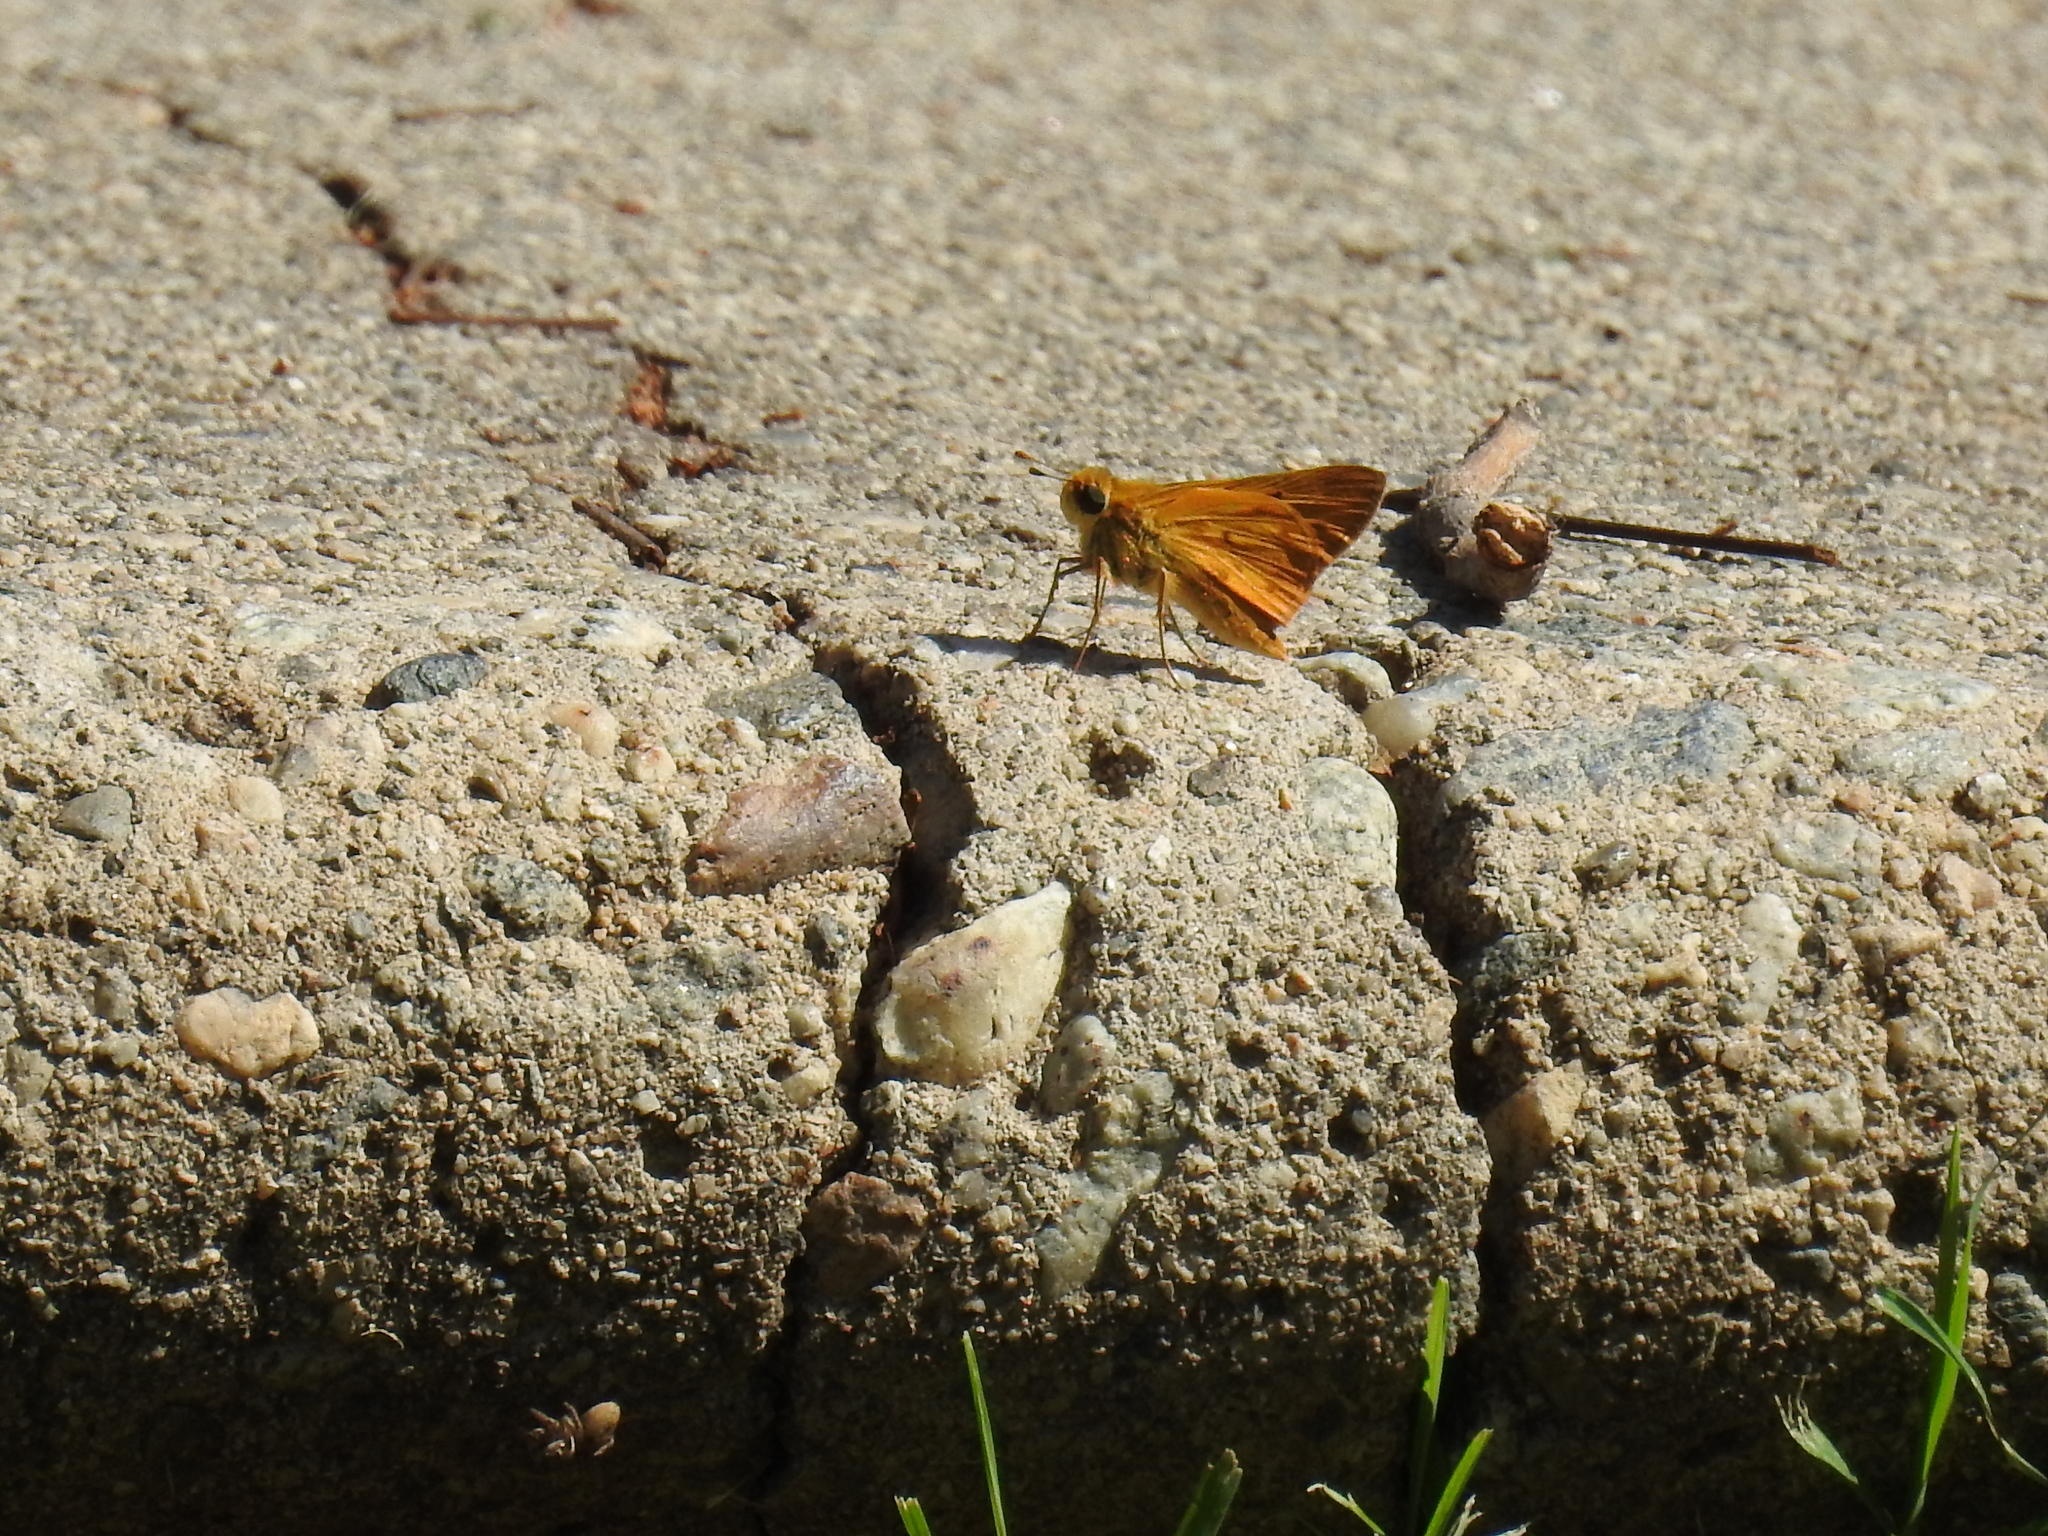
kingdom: Animalia
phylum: Arthropoda
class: Insecta
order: Lepidoptera
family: Hesperiidae
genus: Hylephila
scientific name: Hylephila phyleus
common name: Fiery skipper
